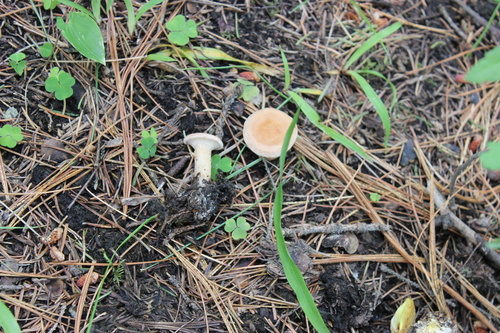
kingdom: Fungi
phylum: Basidiomycota
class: Agaricomycetes
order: Agaricales
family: Tricholomataceae
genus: Infundibulicybe
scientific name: Infundibulicybe gibba
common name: Common funnel
